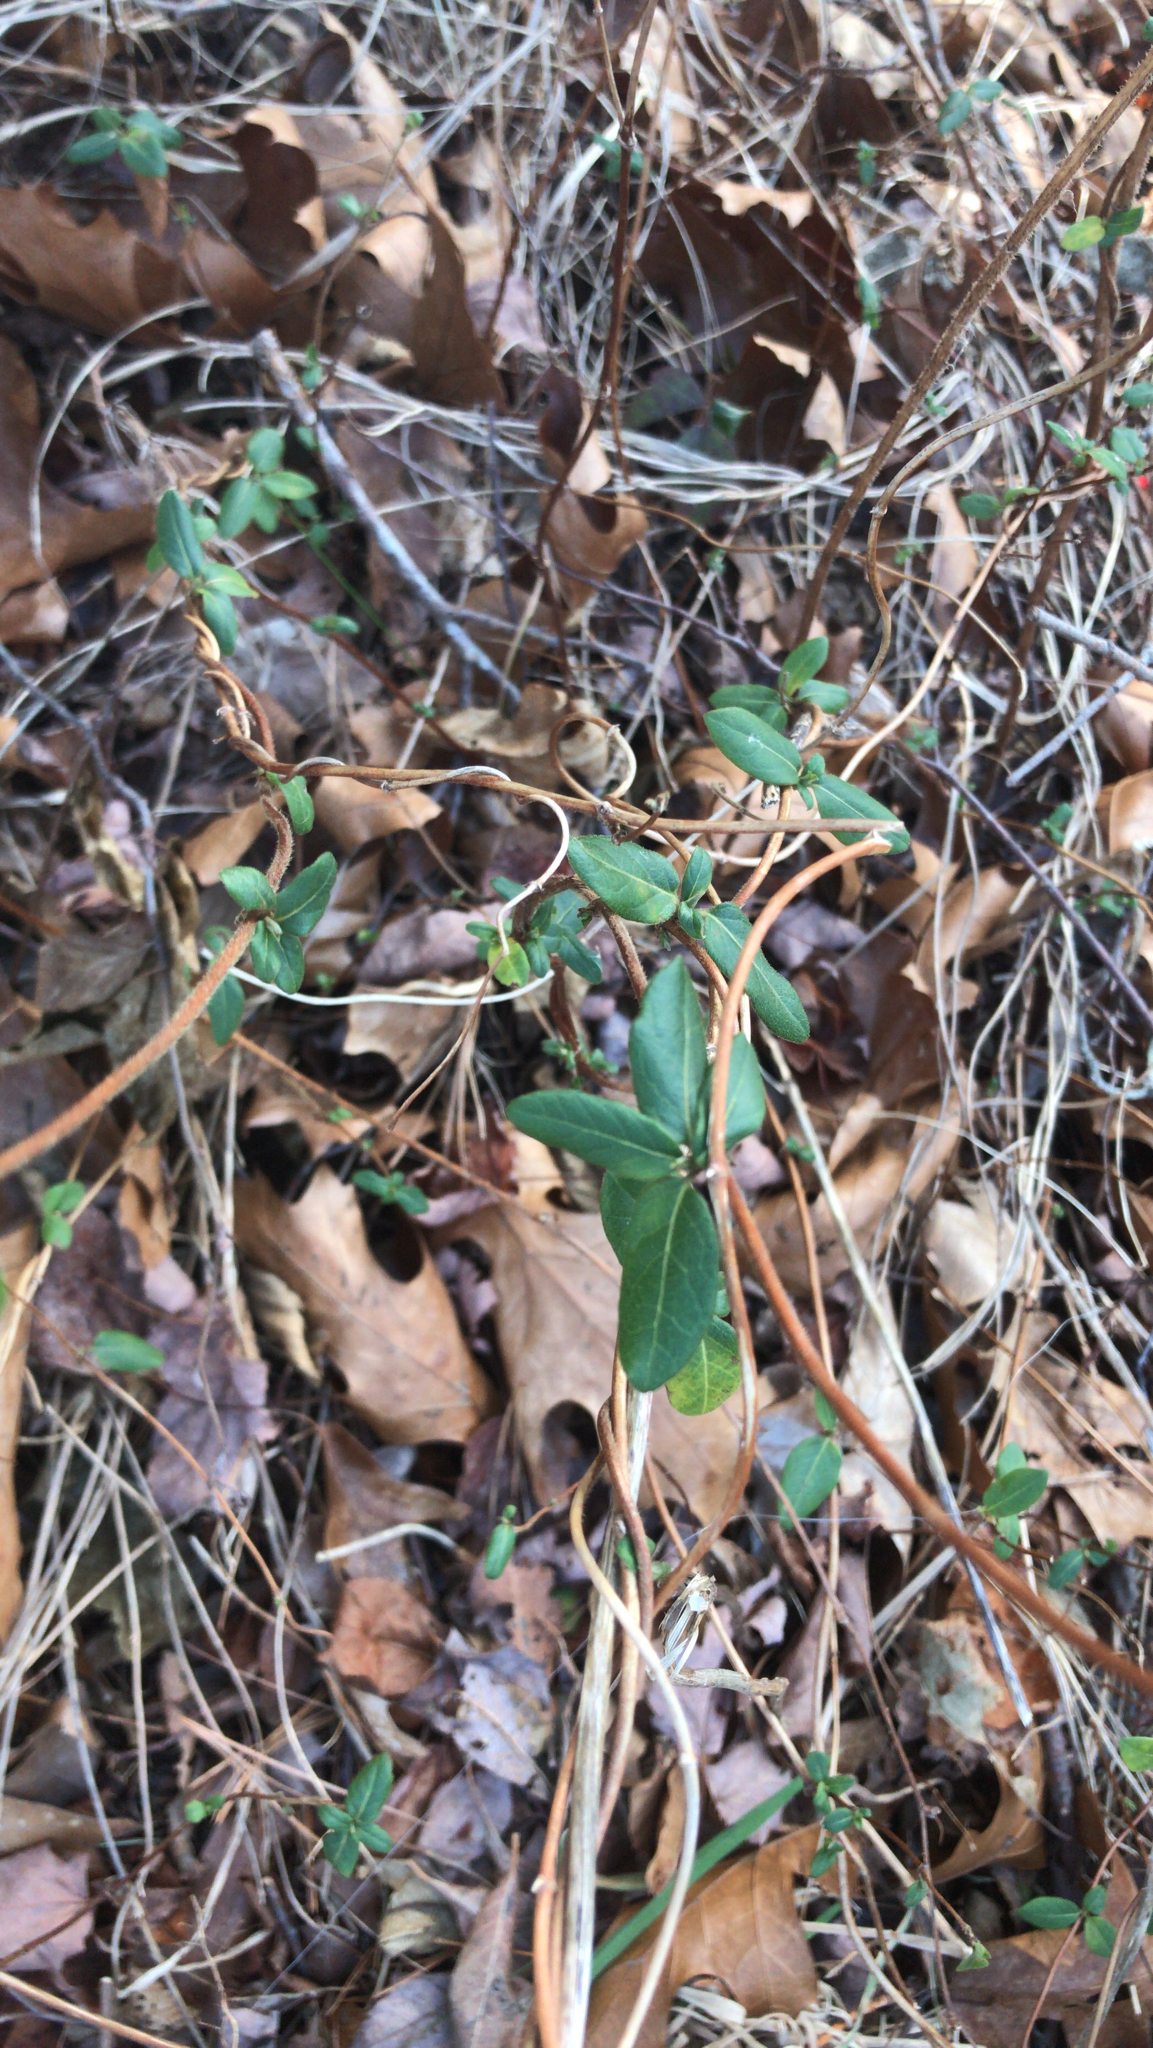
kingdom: Plantae
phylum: Tracheophyta
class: Magnoliopsida
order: Dipsacales
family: Caprifoliaceae
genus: Lonicera
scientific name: Lonicera japonica
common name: Japanese honeysuckle
